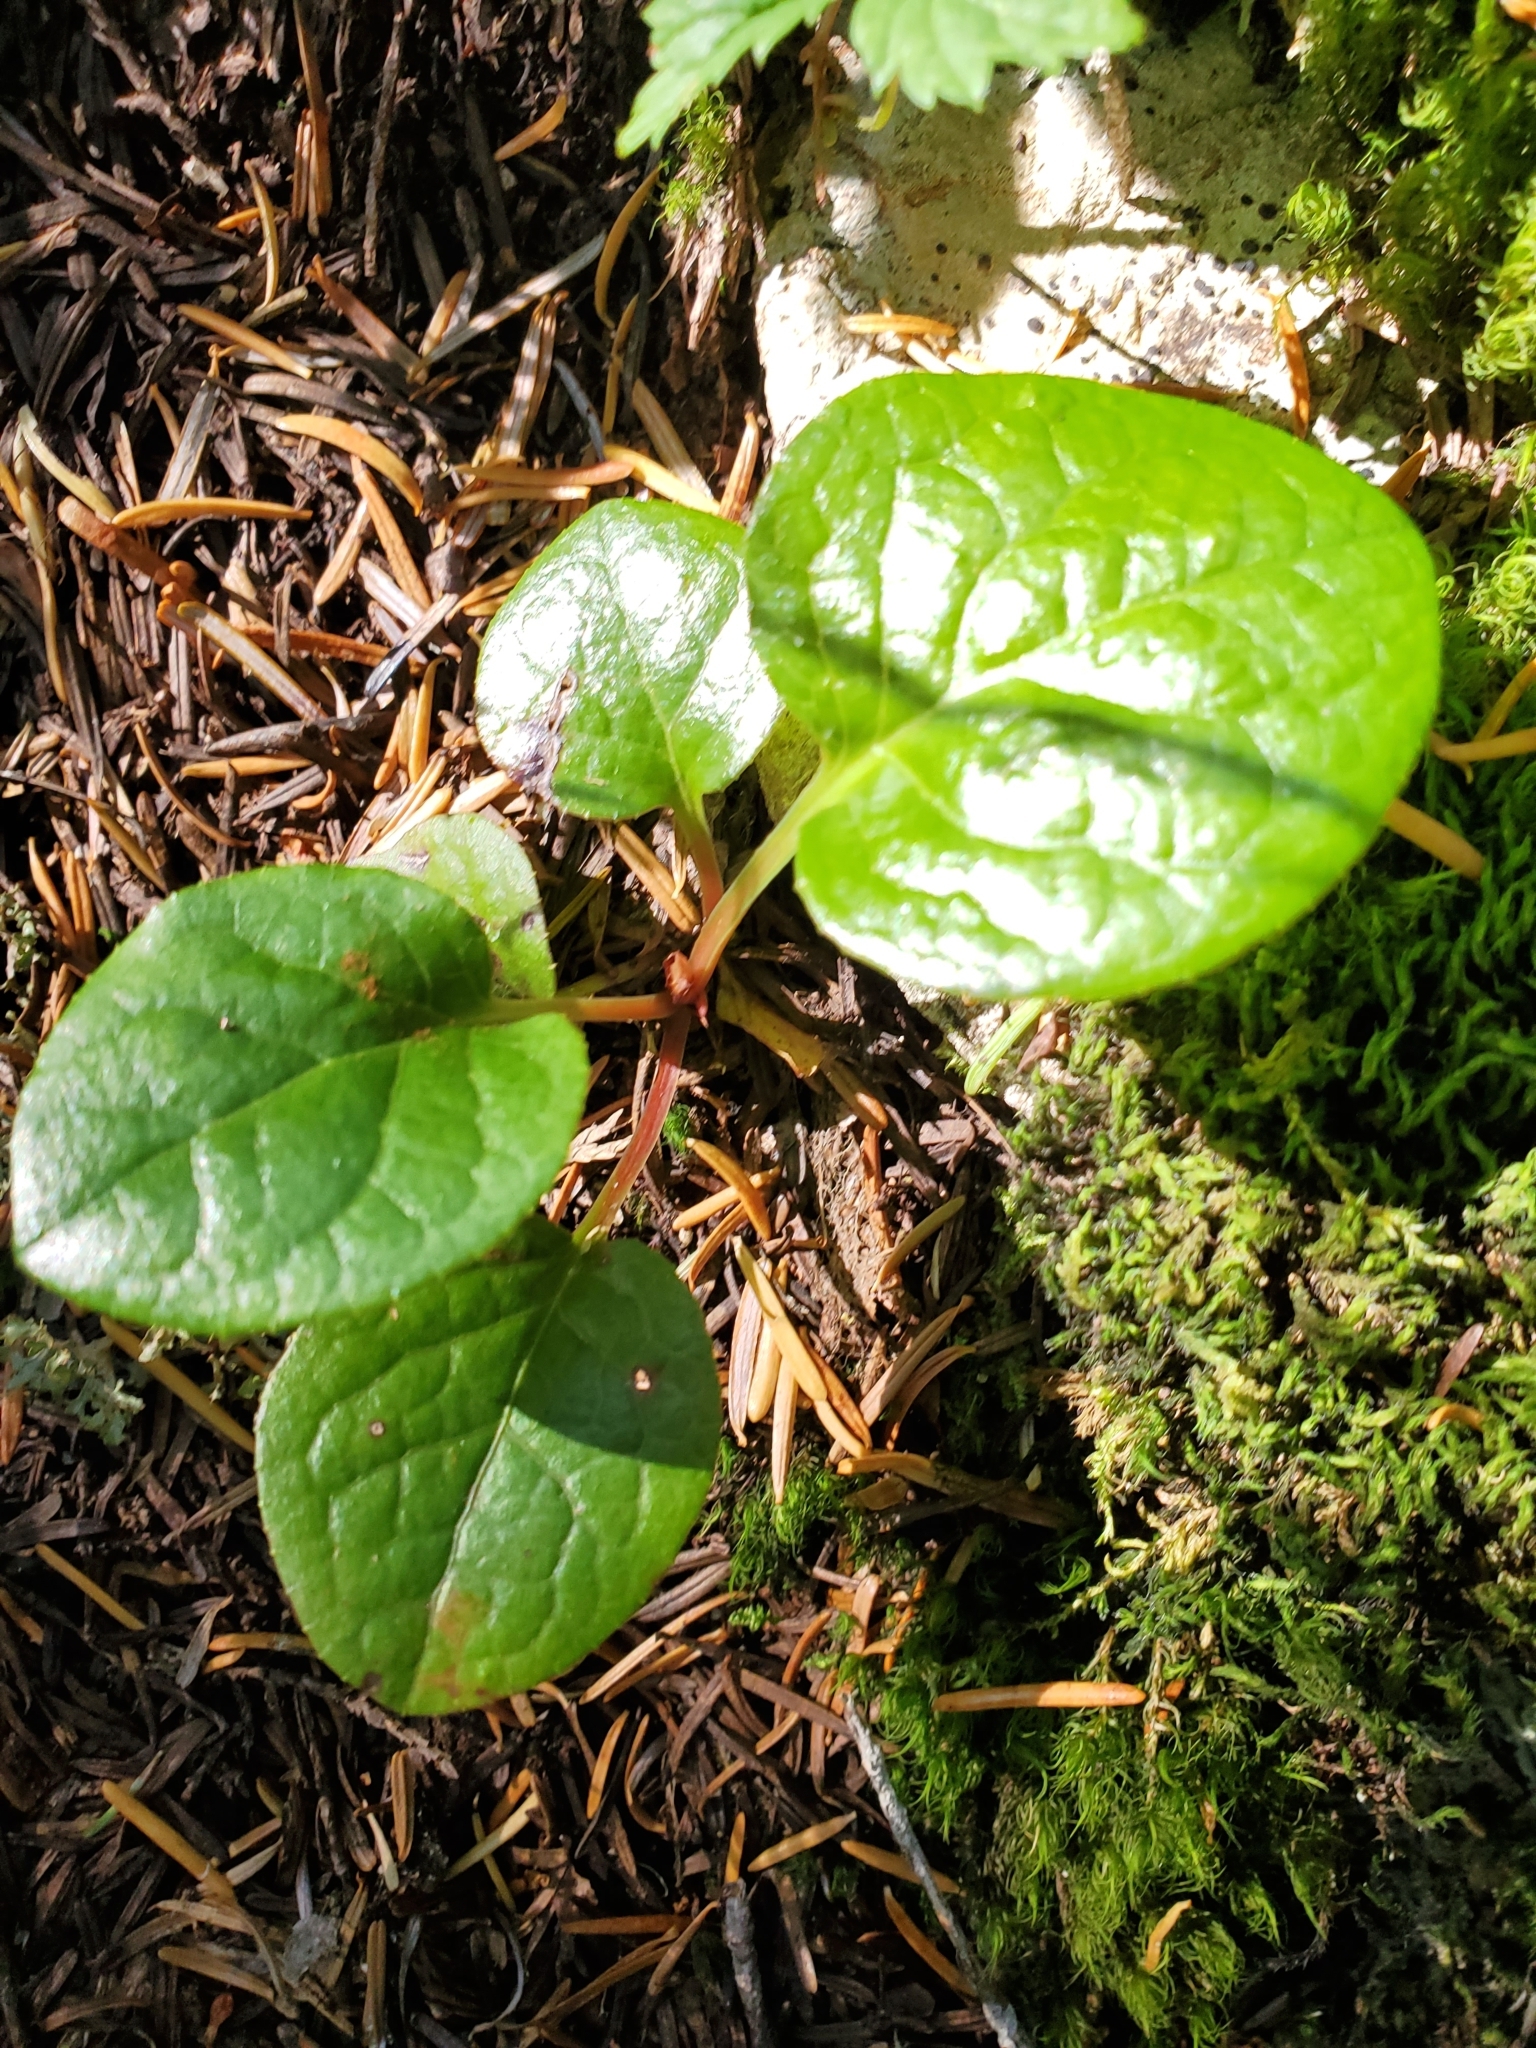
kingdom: Plantae
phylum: Tracheophyta
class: Magnoliopsida
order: Ericales
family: Ericaceae
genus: Pyrola
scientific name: Pyrola asarifolia
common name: Bog wintergreen
